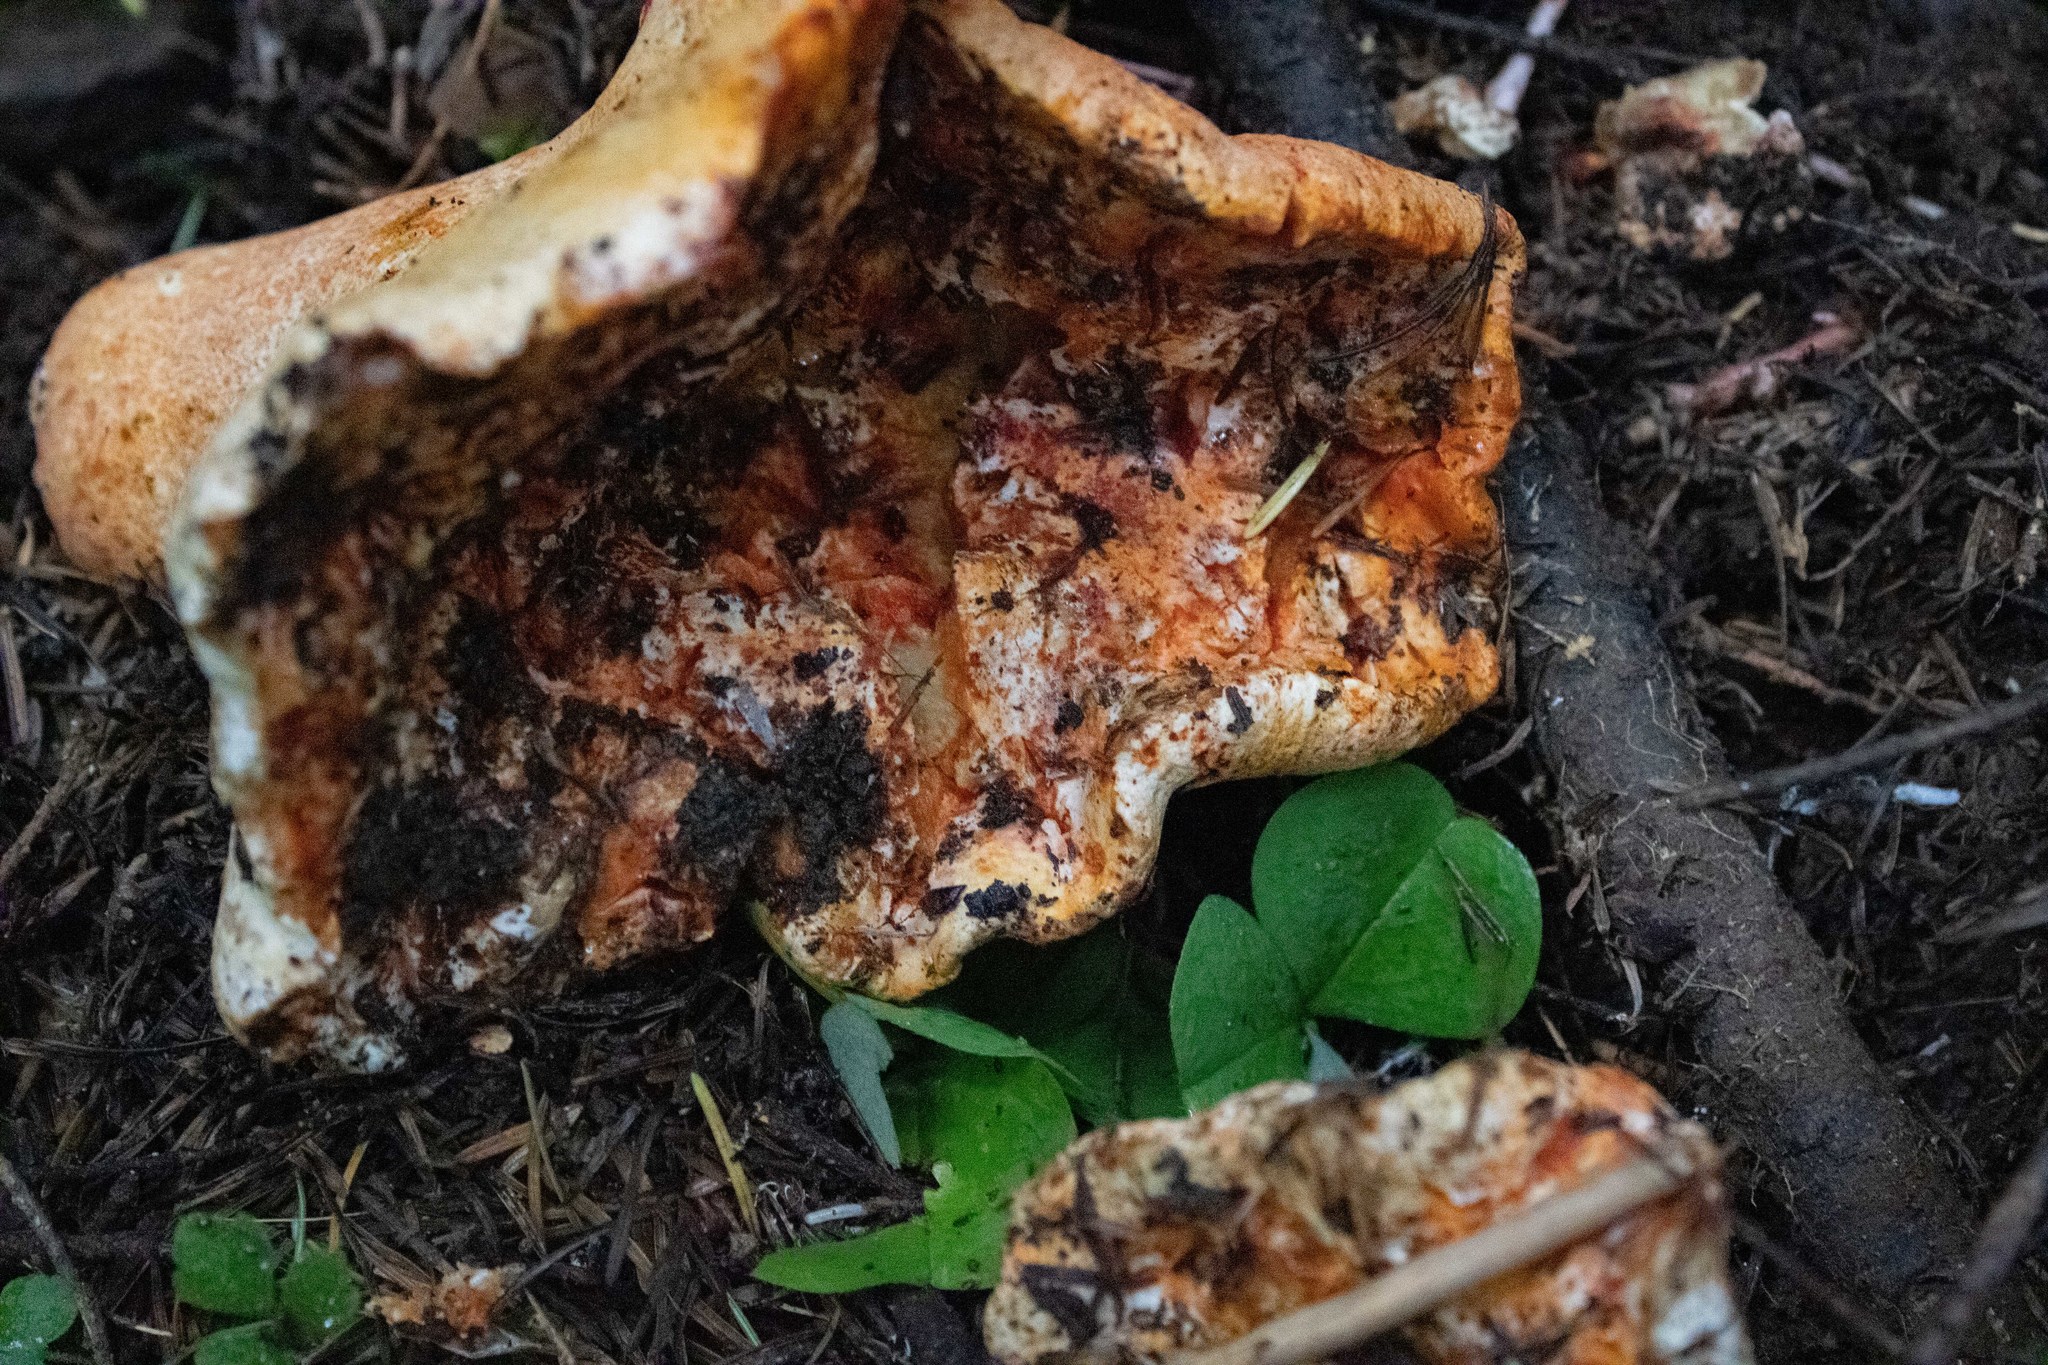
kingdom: Fungi
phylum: Ascomycota
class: Sordariomycetes
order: Hypocreales
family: Hypocreaceae
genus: Hypomyces
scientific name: Hypomyces lactifluorum
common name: Lobster mushroom
